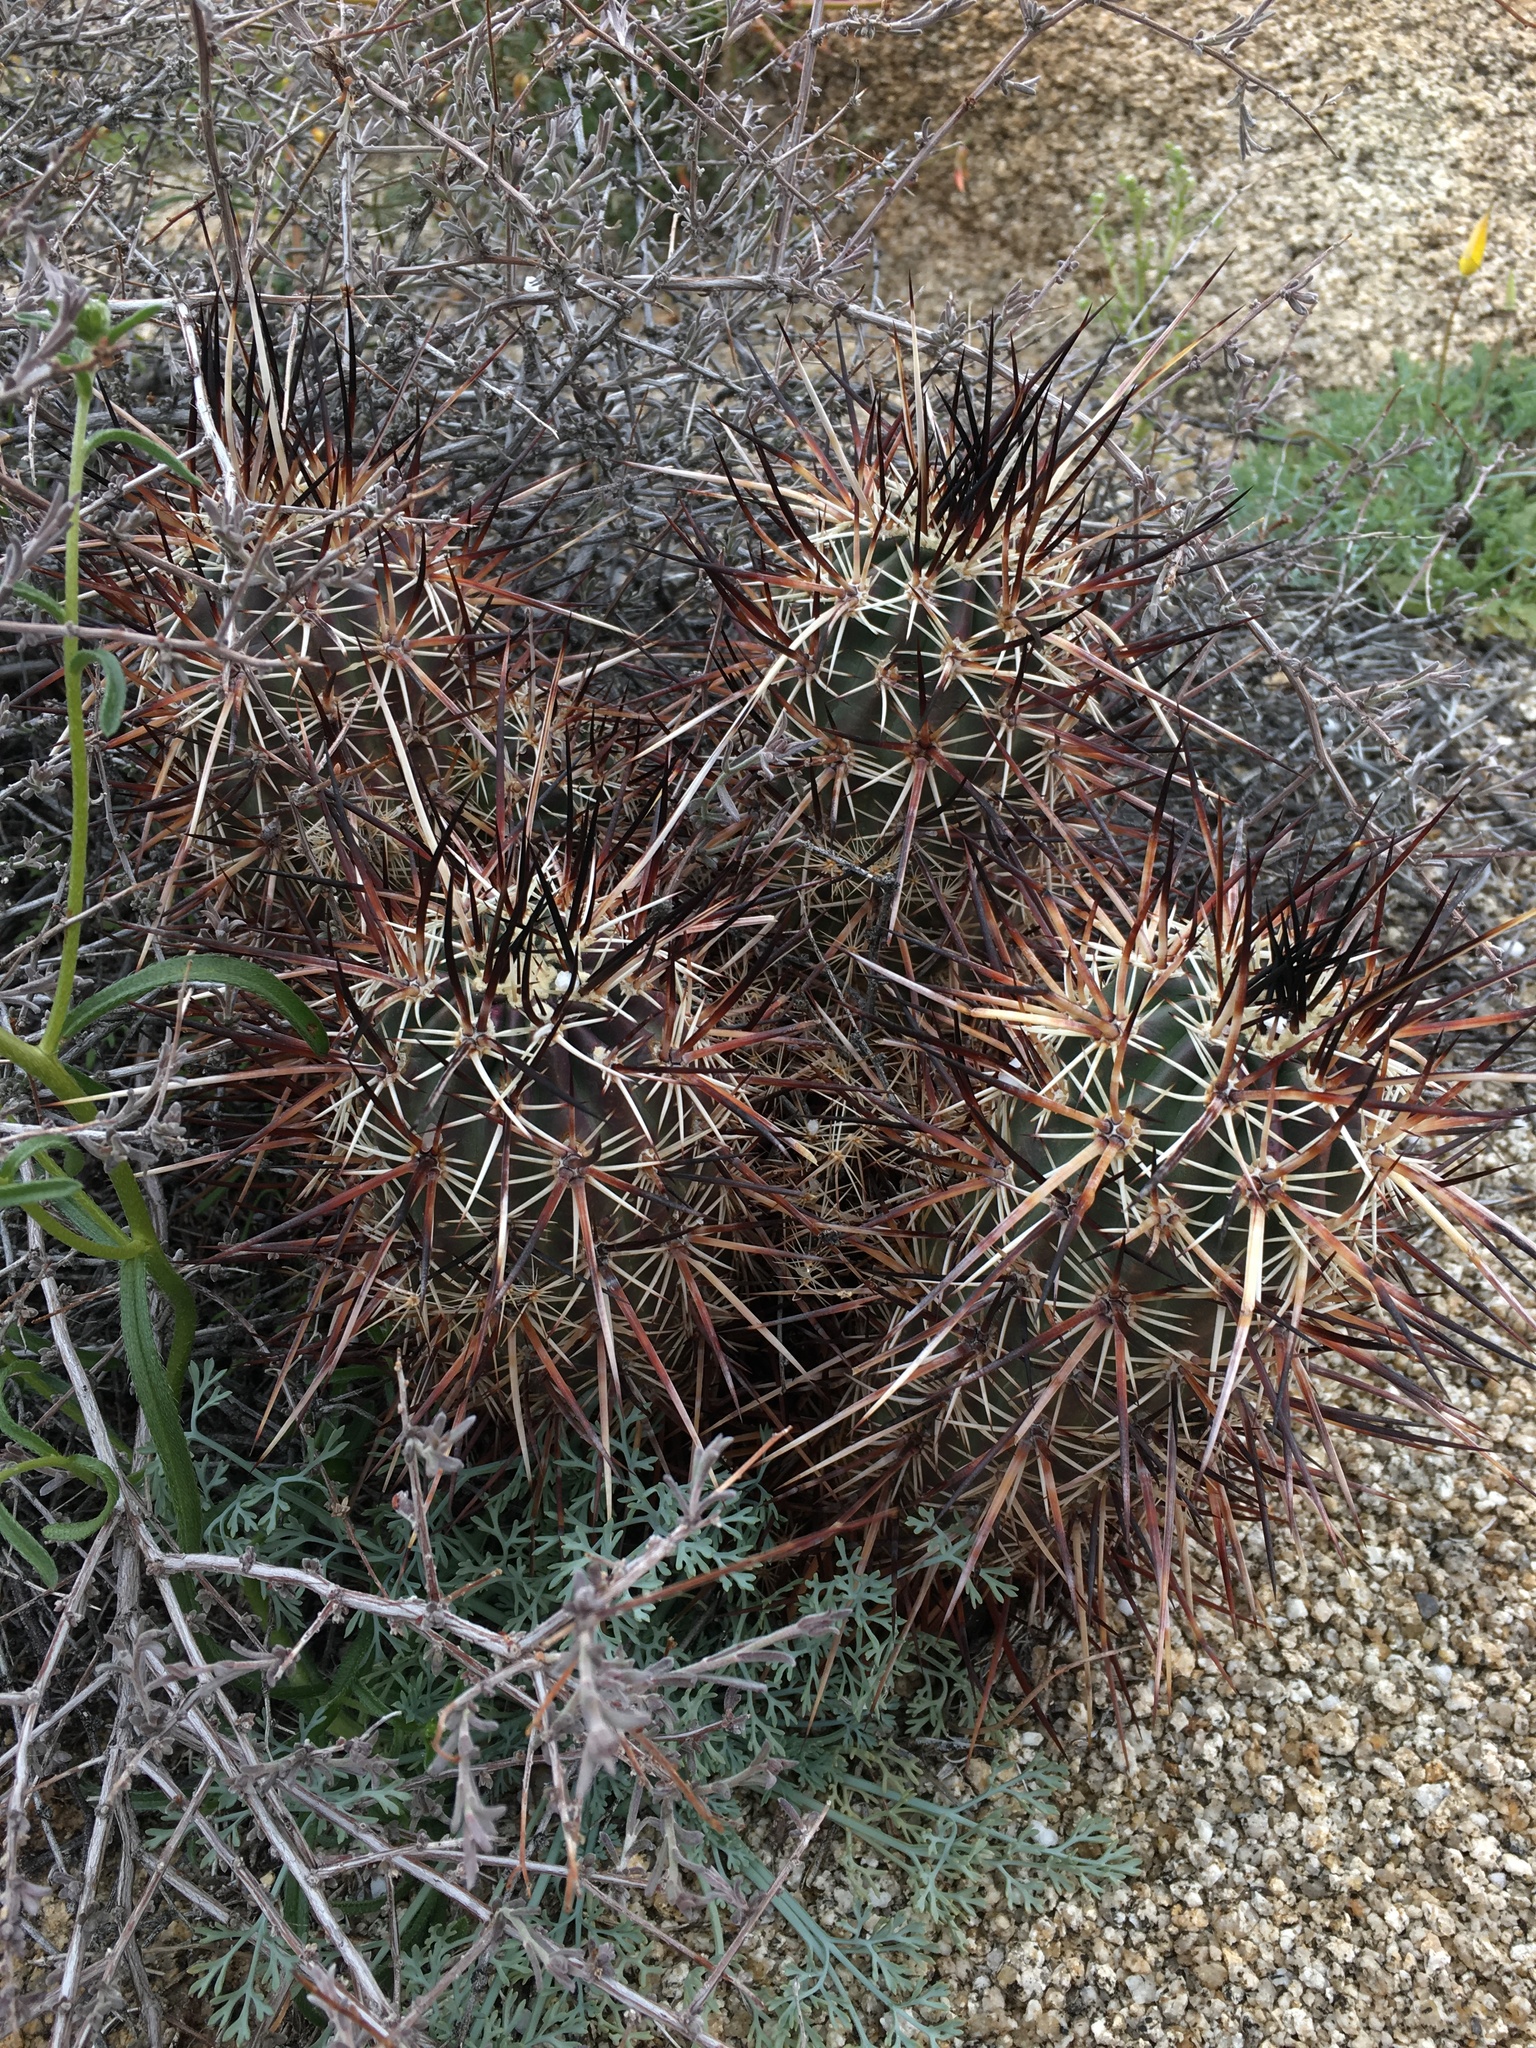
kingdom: Plantae
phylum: Tracheophyta
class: Magnoliopsida
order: Caryophyllales
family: Cactaceae
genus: Echinocereus
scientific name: Echinocereus engelmannii
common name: Engelmann's hedgehog cactus
